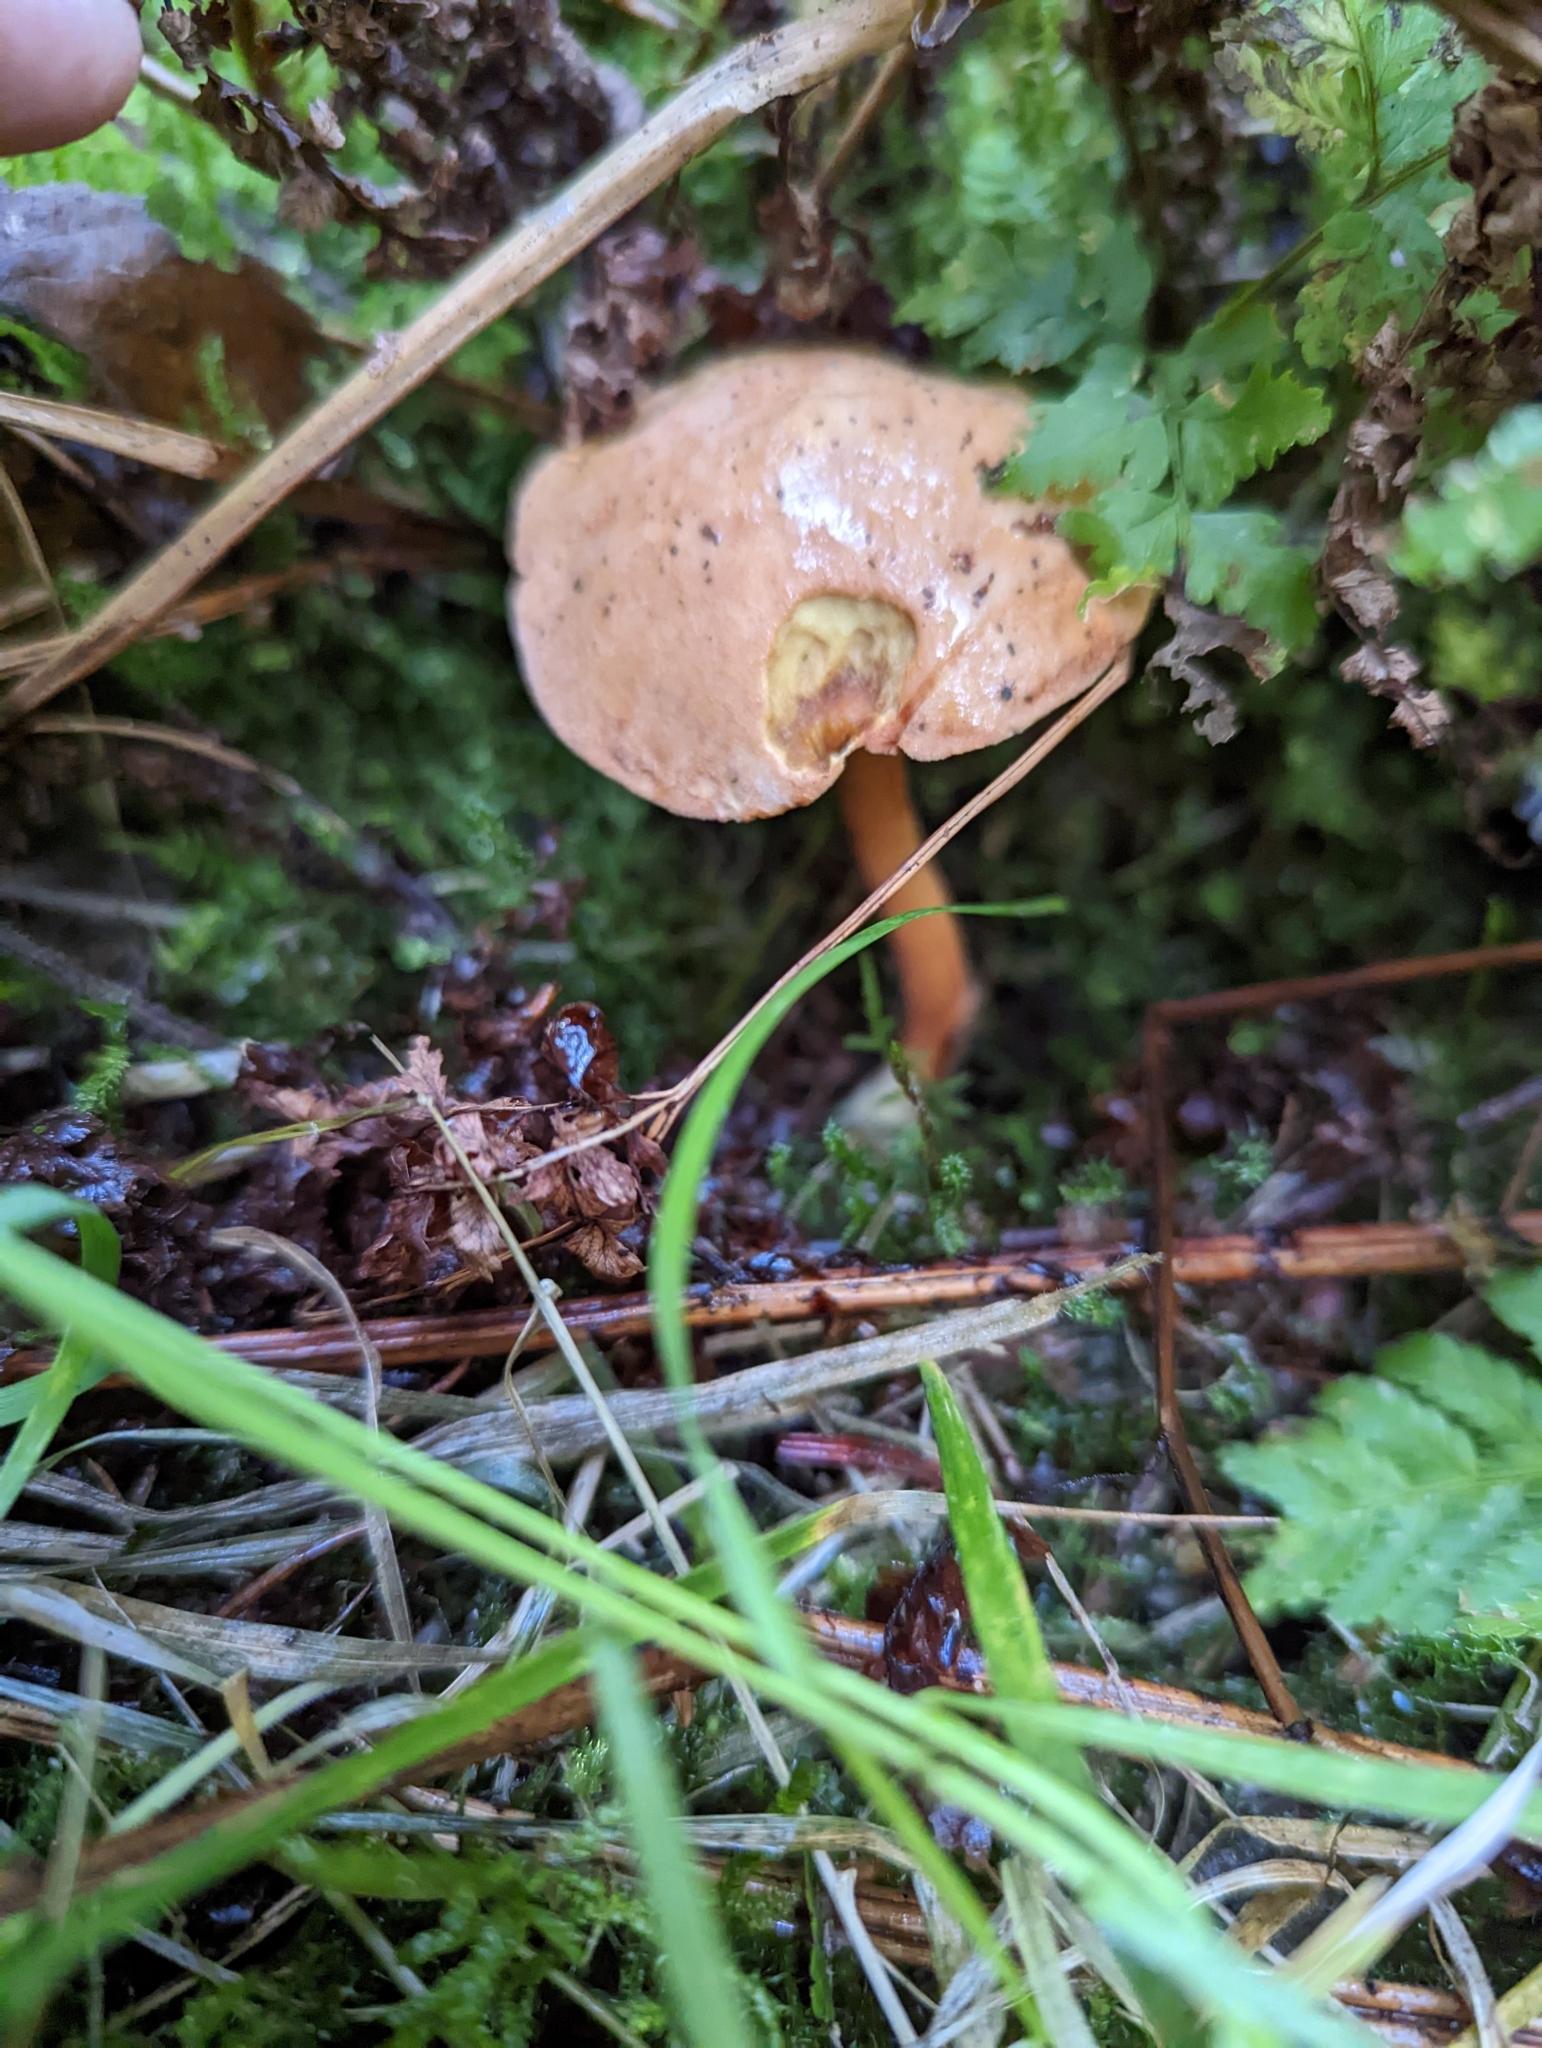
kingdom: Fungi
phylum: Basidiomycota
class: Agaricomycetes
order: Boletales
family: Boletaceae
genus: Chalciporus
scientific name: Chalciporus piperatus
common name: Peppery bolete
